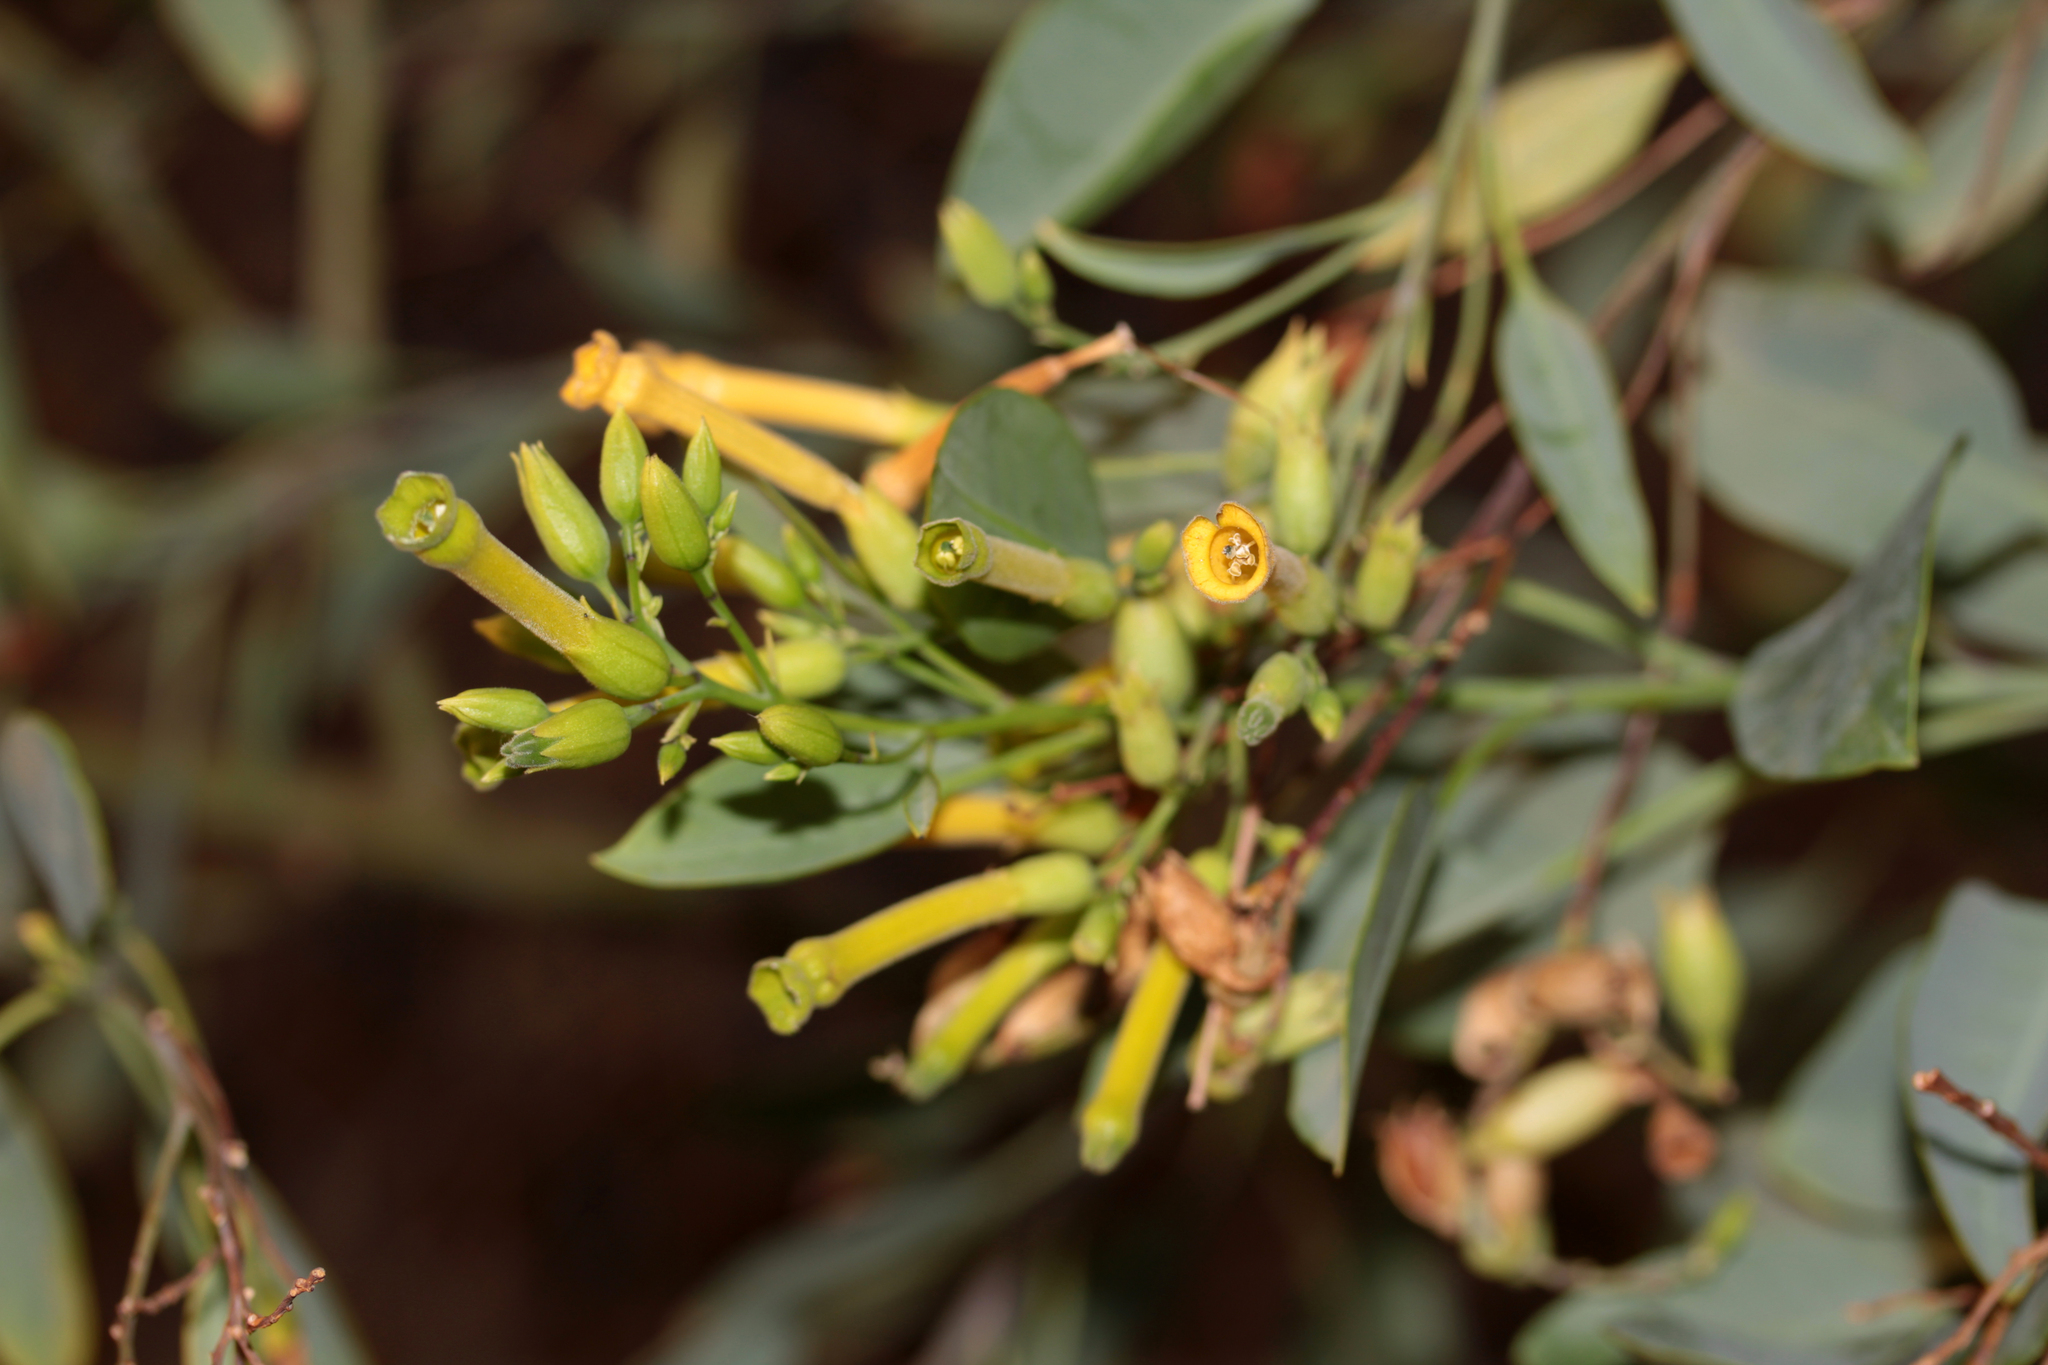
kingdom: Plantae
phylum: Tracheophyta
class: Magnoliopsida
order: Solanales
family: Solanaceae
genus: Nicotiana
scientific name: Nicotiana glauca
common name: Tree tobacco
